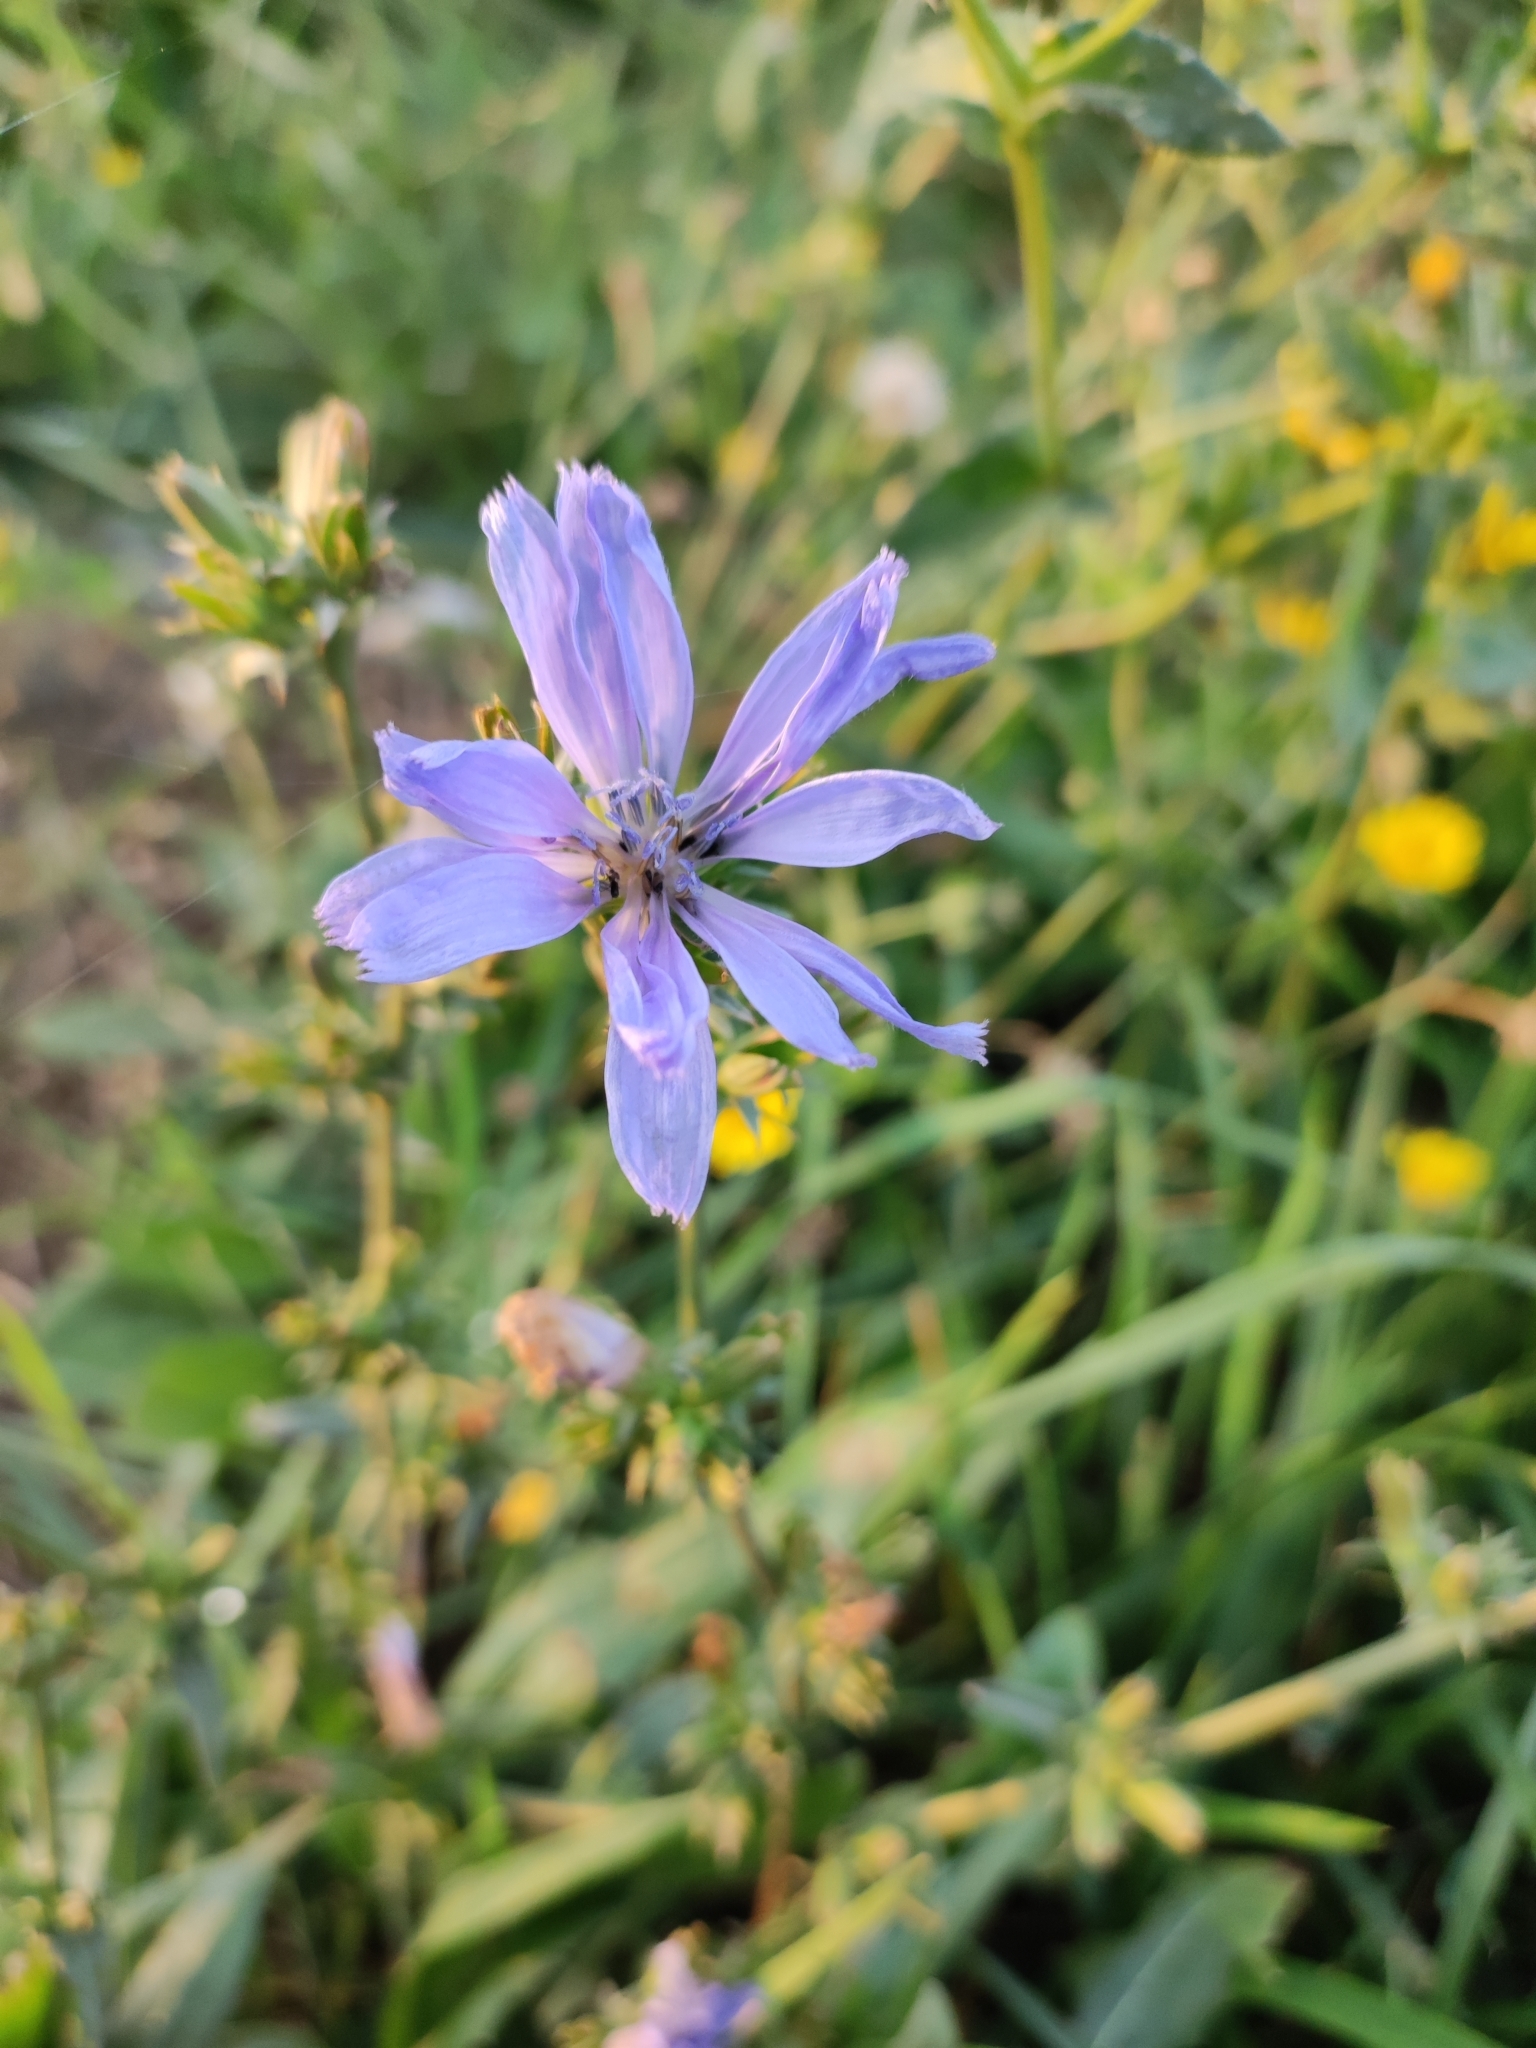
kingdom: Plantae
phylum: Tracheophyta
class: Magnoliopsida
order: Asterales
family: Asteraceae
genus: Cichorium
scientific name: Cichorium intybus
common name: Chicory
